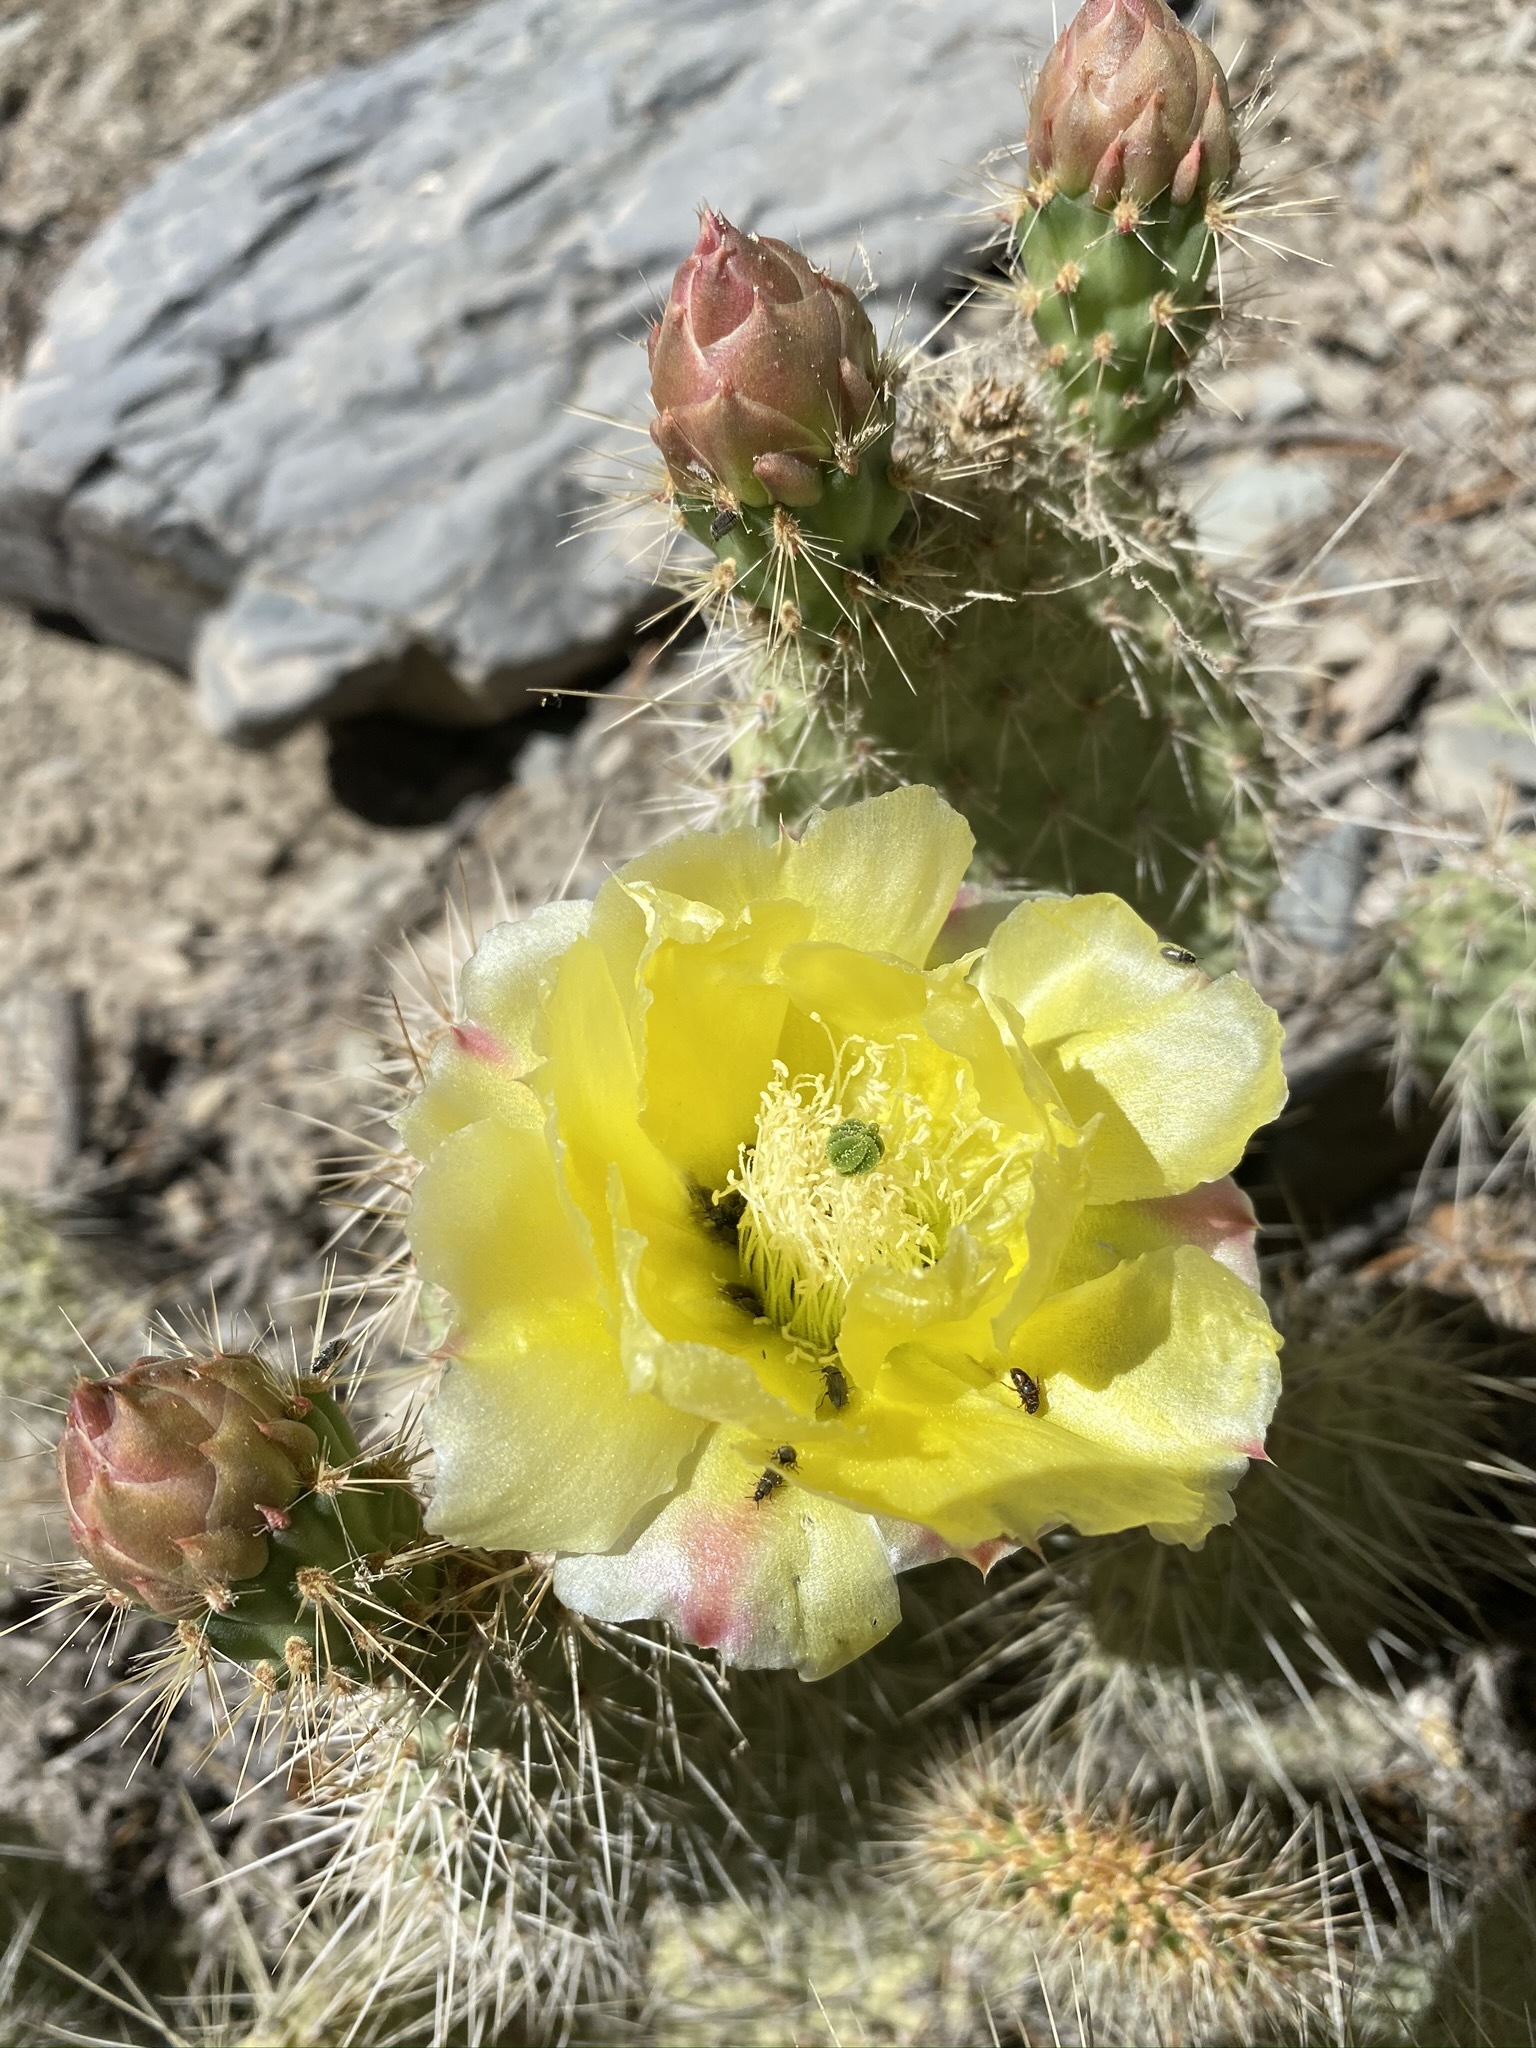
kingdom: Plantae
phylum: Tracheophyta
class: Magnoliopsida
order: Caryophyllales
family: Cactaceae
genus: Opuntia
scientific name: Opuntia polyacantha
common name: Plains prickly-pear
